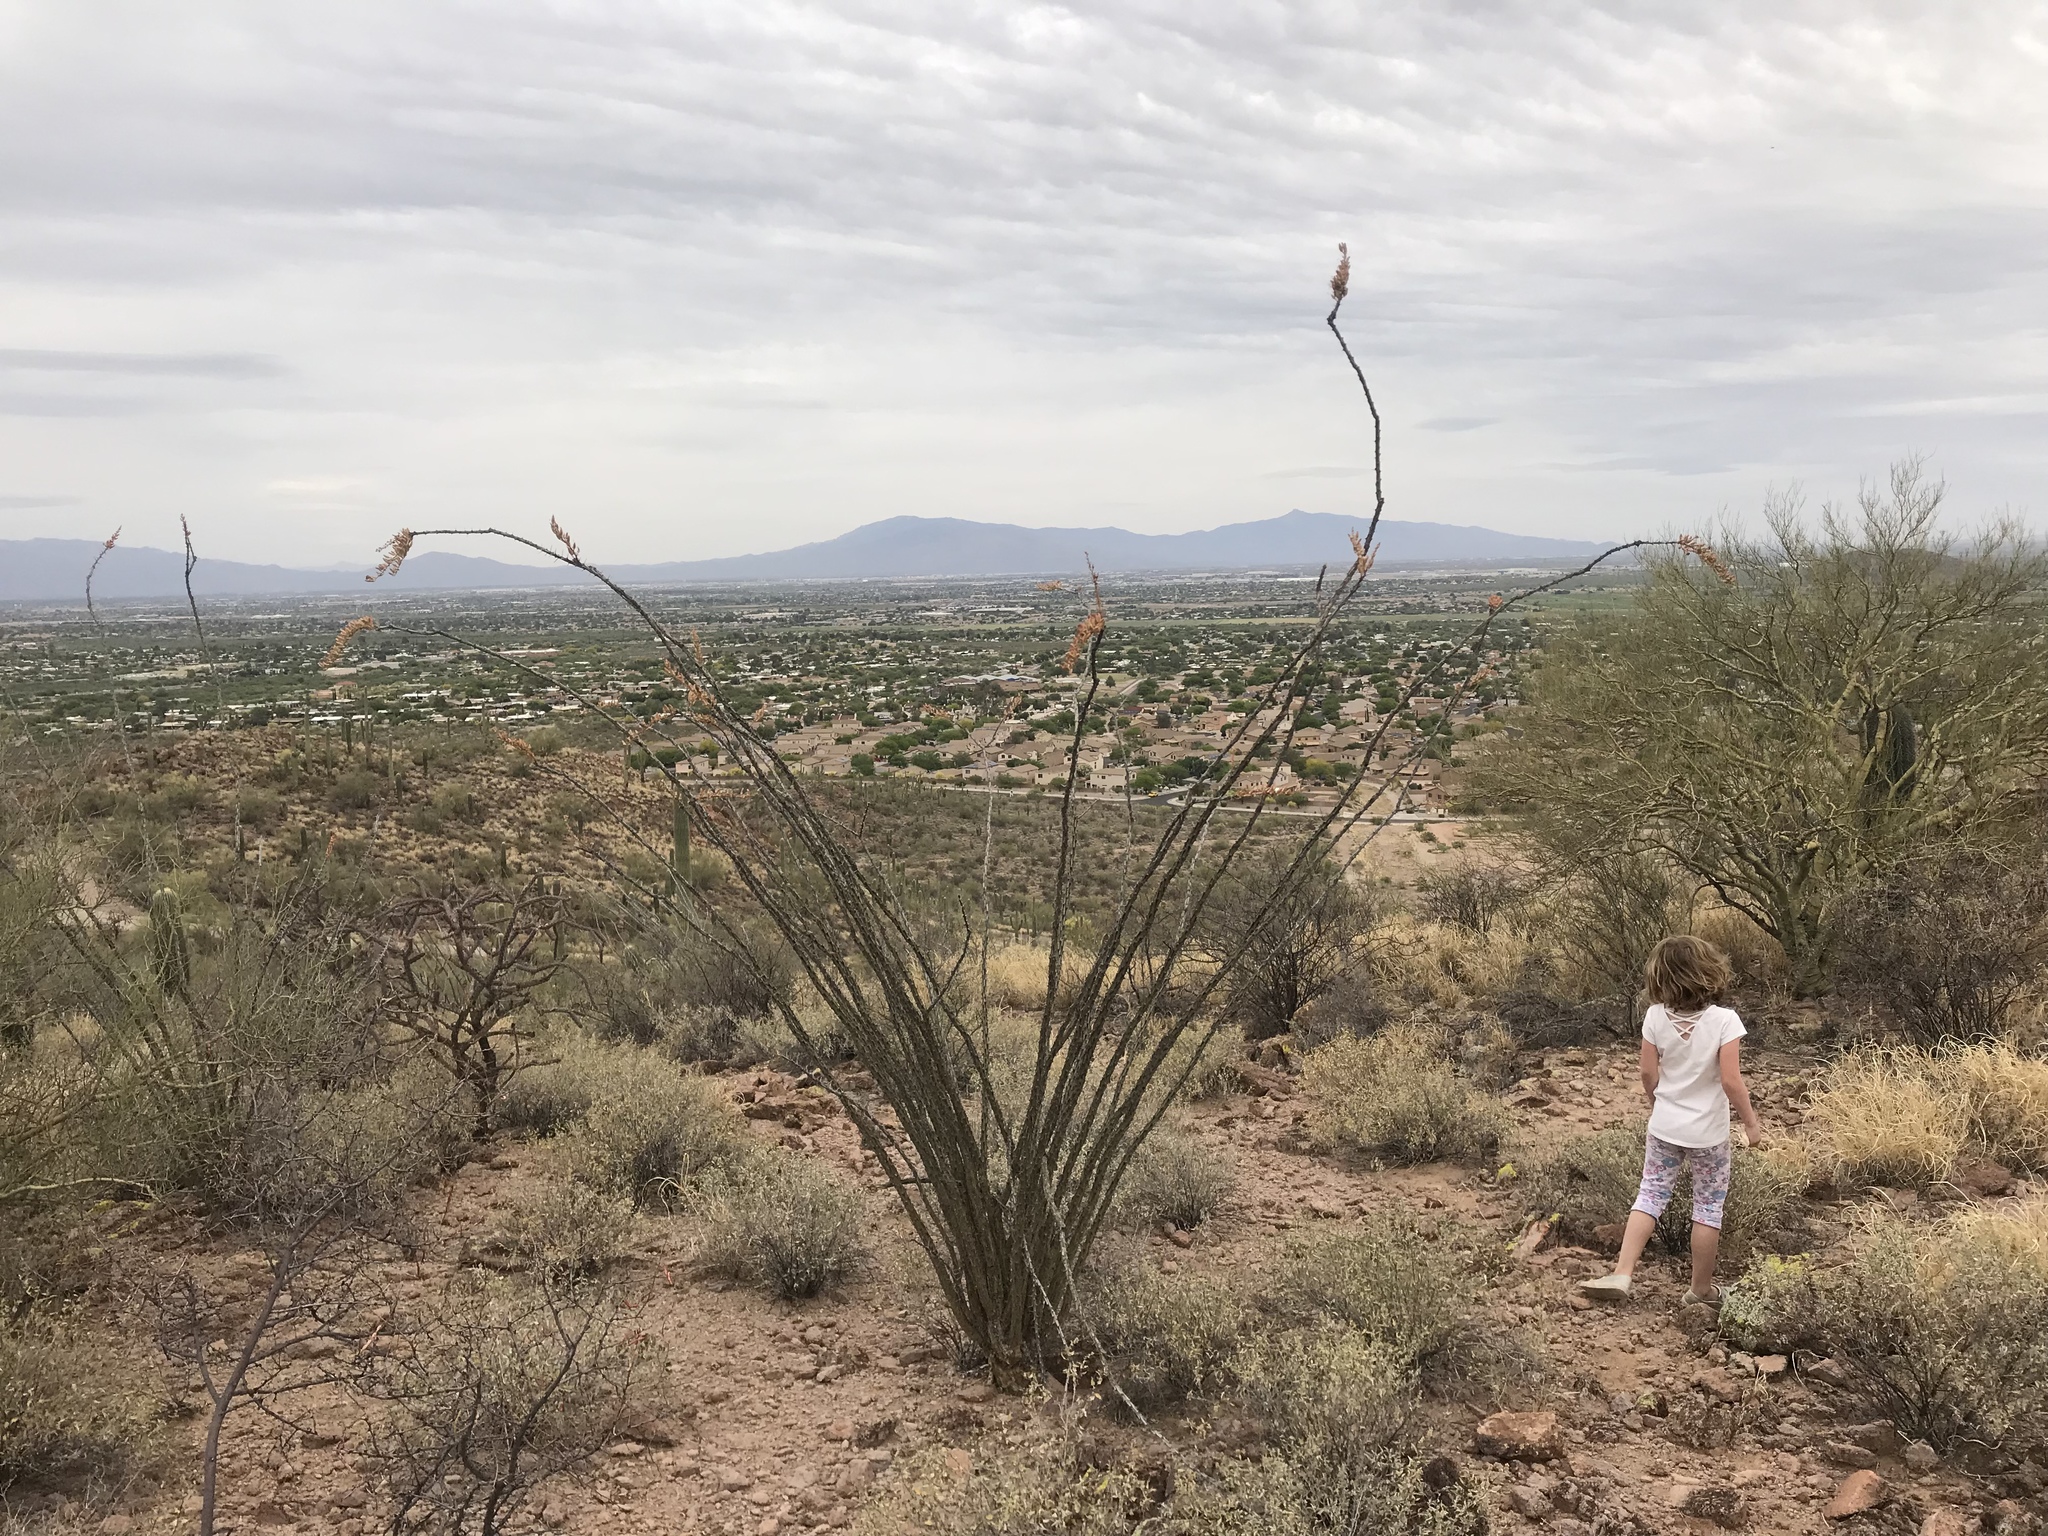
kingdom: Plantae
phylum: Tracheophyta
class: Magnoliopsida
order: Ericales
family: Fouquieriaceae
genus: Fouquieria
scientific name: Fouquieria splendens
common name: Vine-cactus
